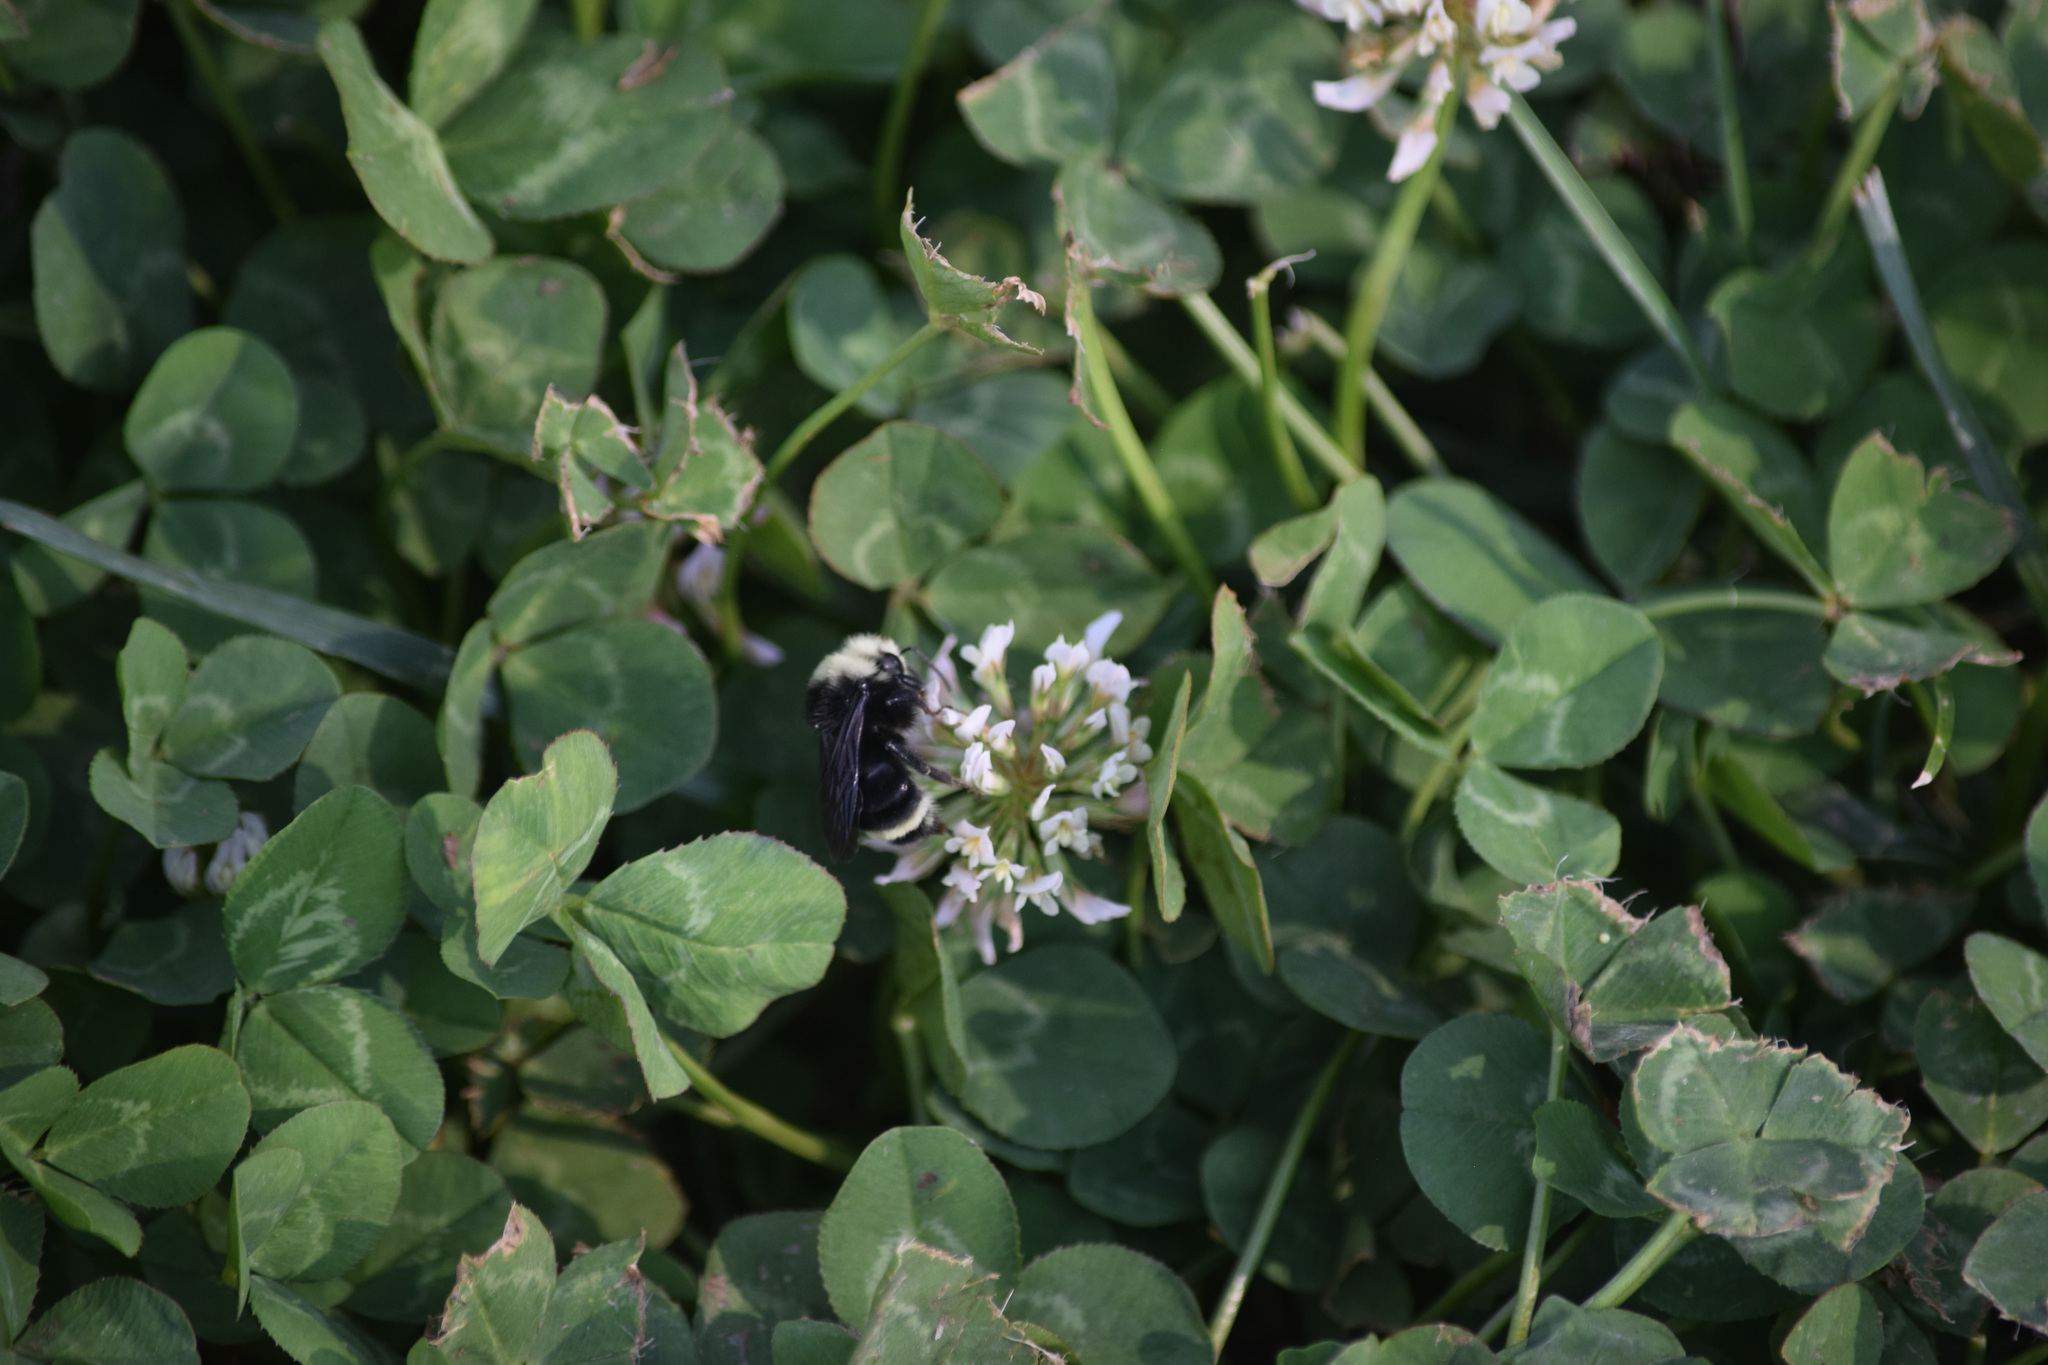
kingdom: Animalia
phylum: Arthropoda
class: Insecta
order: Hymenoptera
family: Apidae
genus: Bombus
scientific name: Bombus vosnesenskii
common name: Vosnesensky bumble bee
